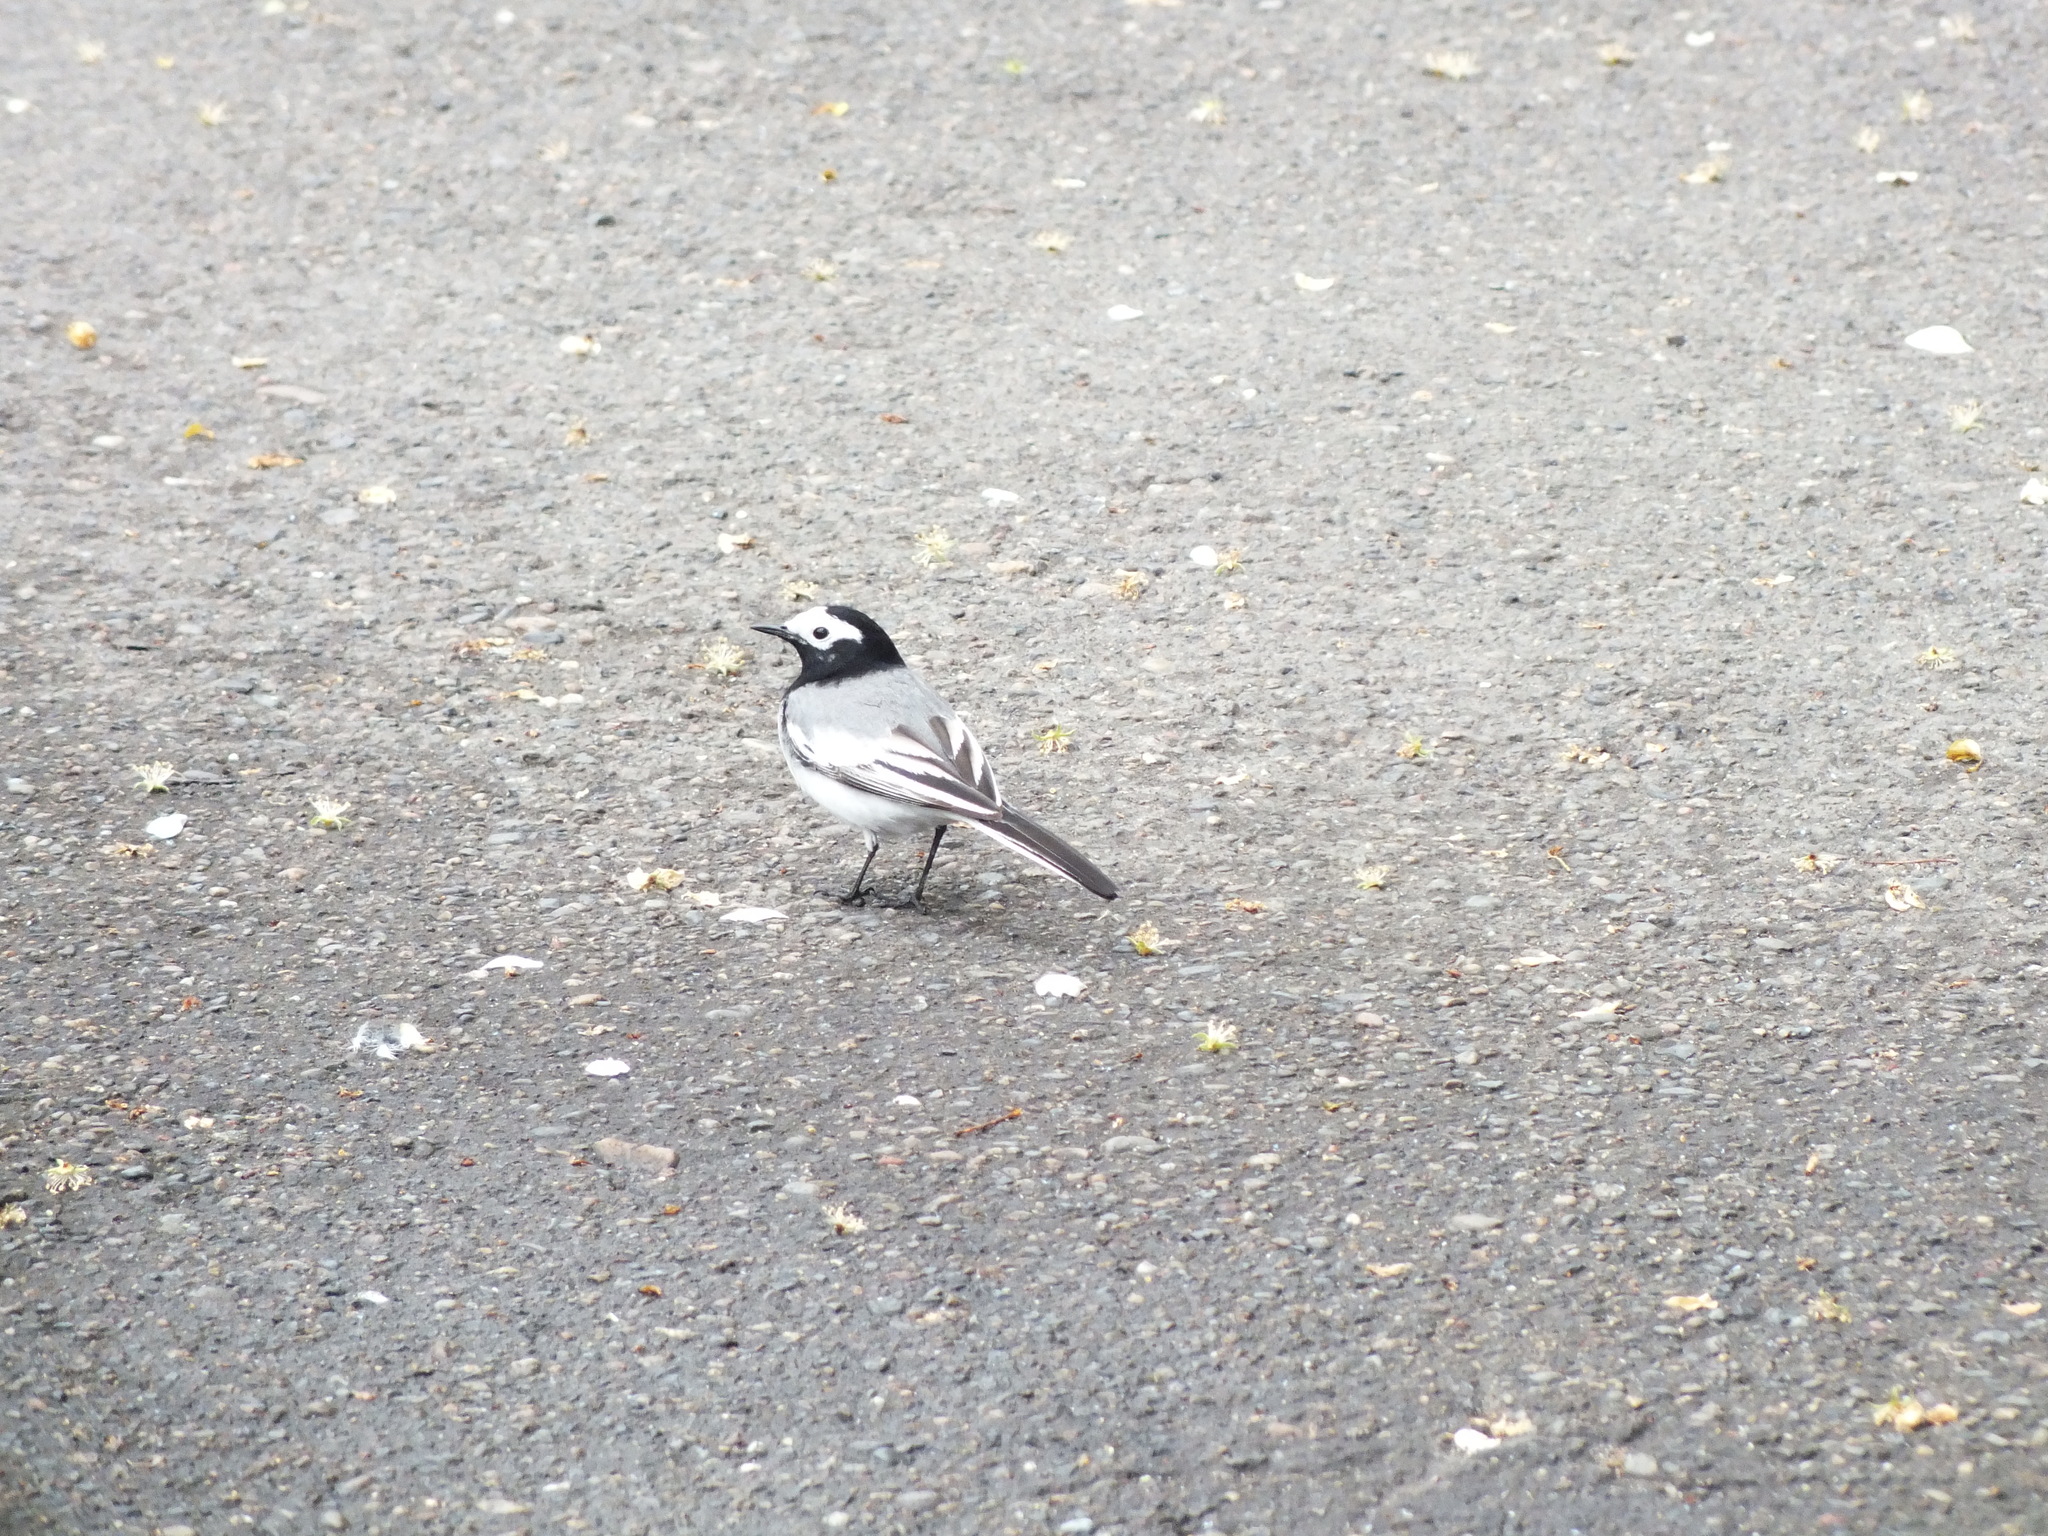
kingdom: Animalia
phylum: Chordata
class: Aves
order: Passeriformes
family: Motacillidae
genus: Motacilla
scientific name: Motacilla alba
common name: White wagtail
